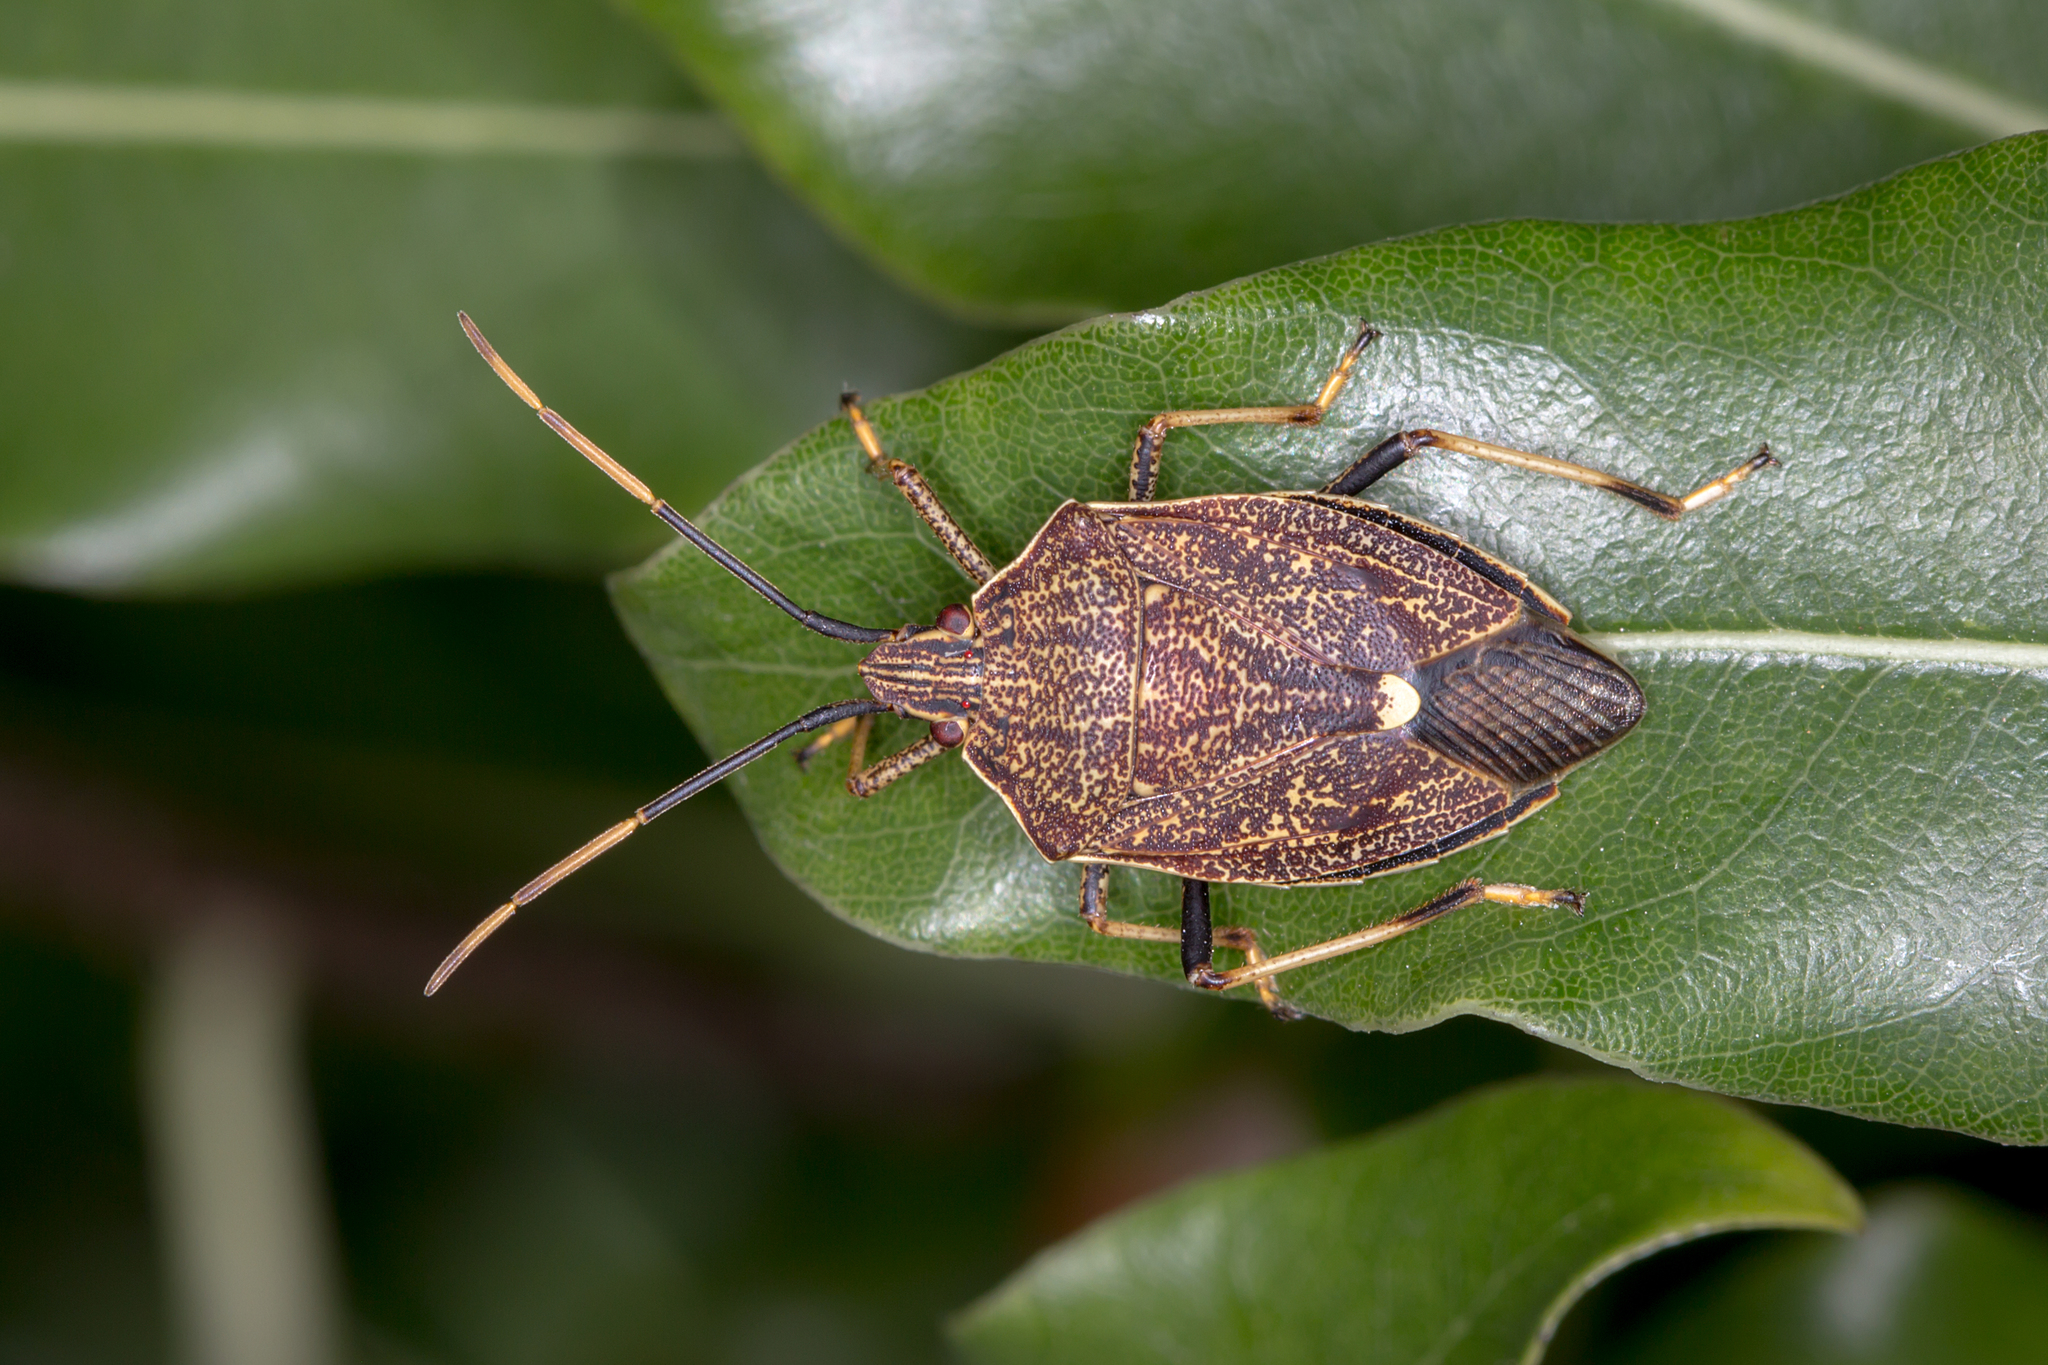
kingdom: Animalia
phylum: Arthropoda
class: Insecta
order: Hemiptera
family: Pentatomidae
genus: Poecilometis
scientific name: Poecilometis
